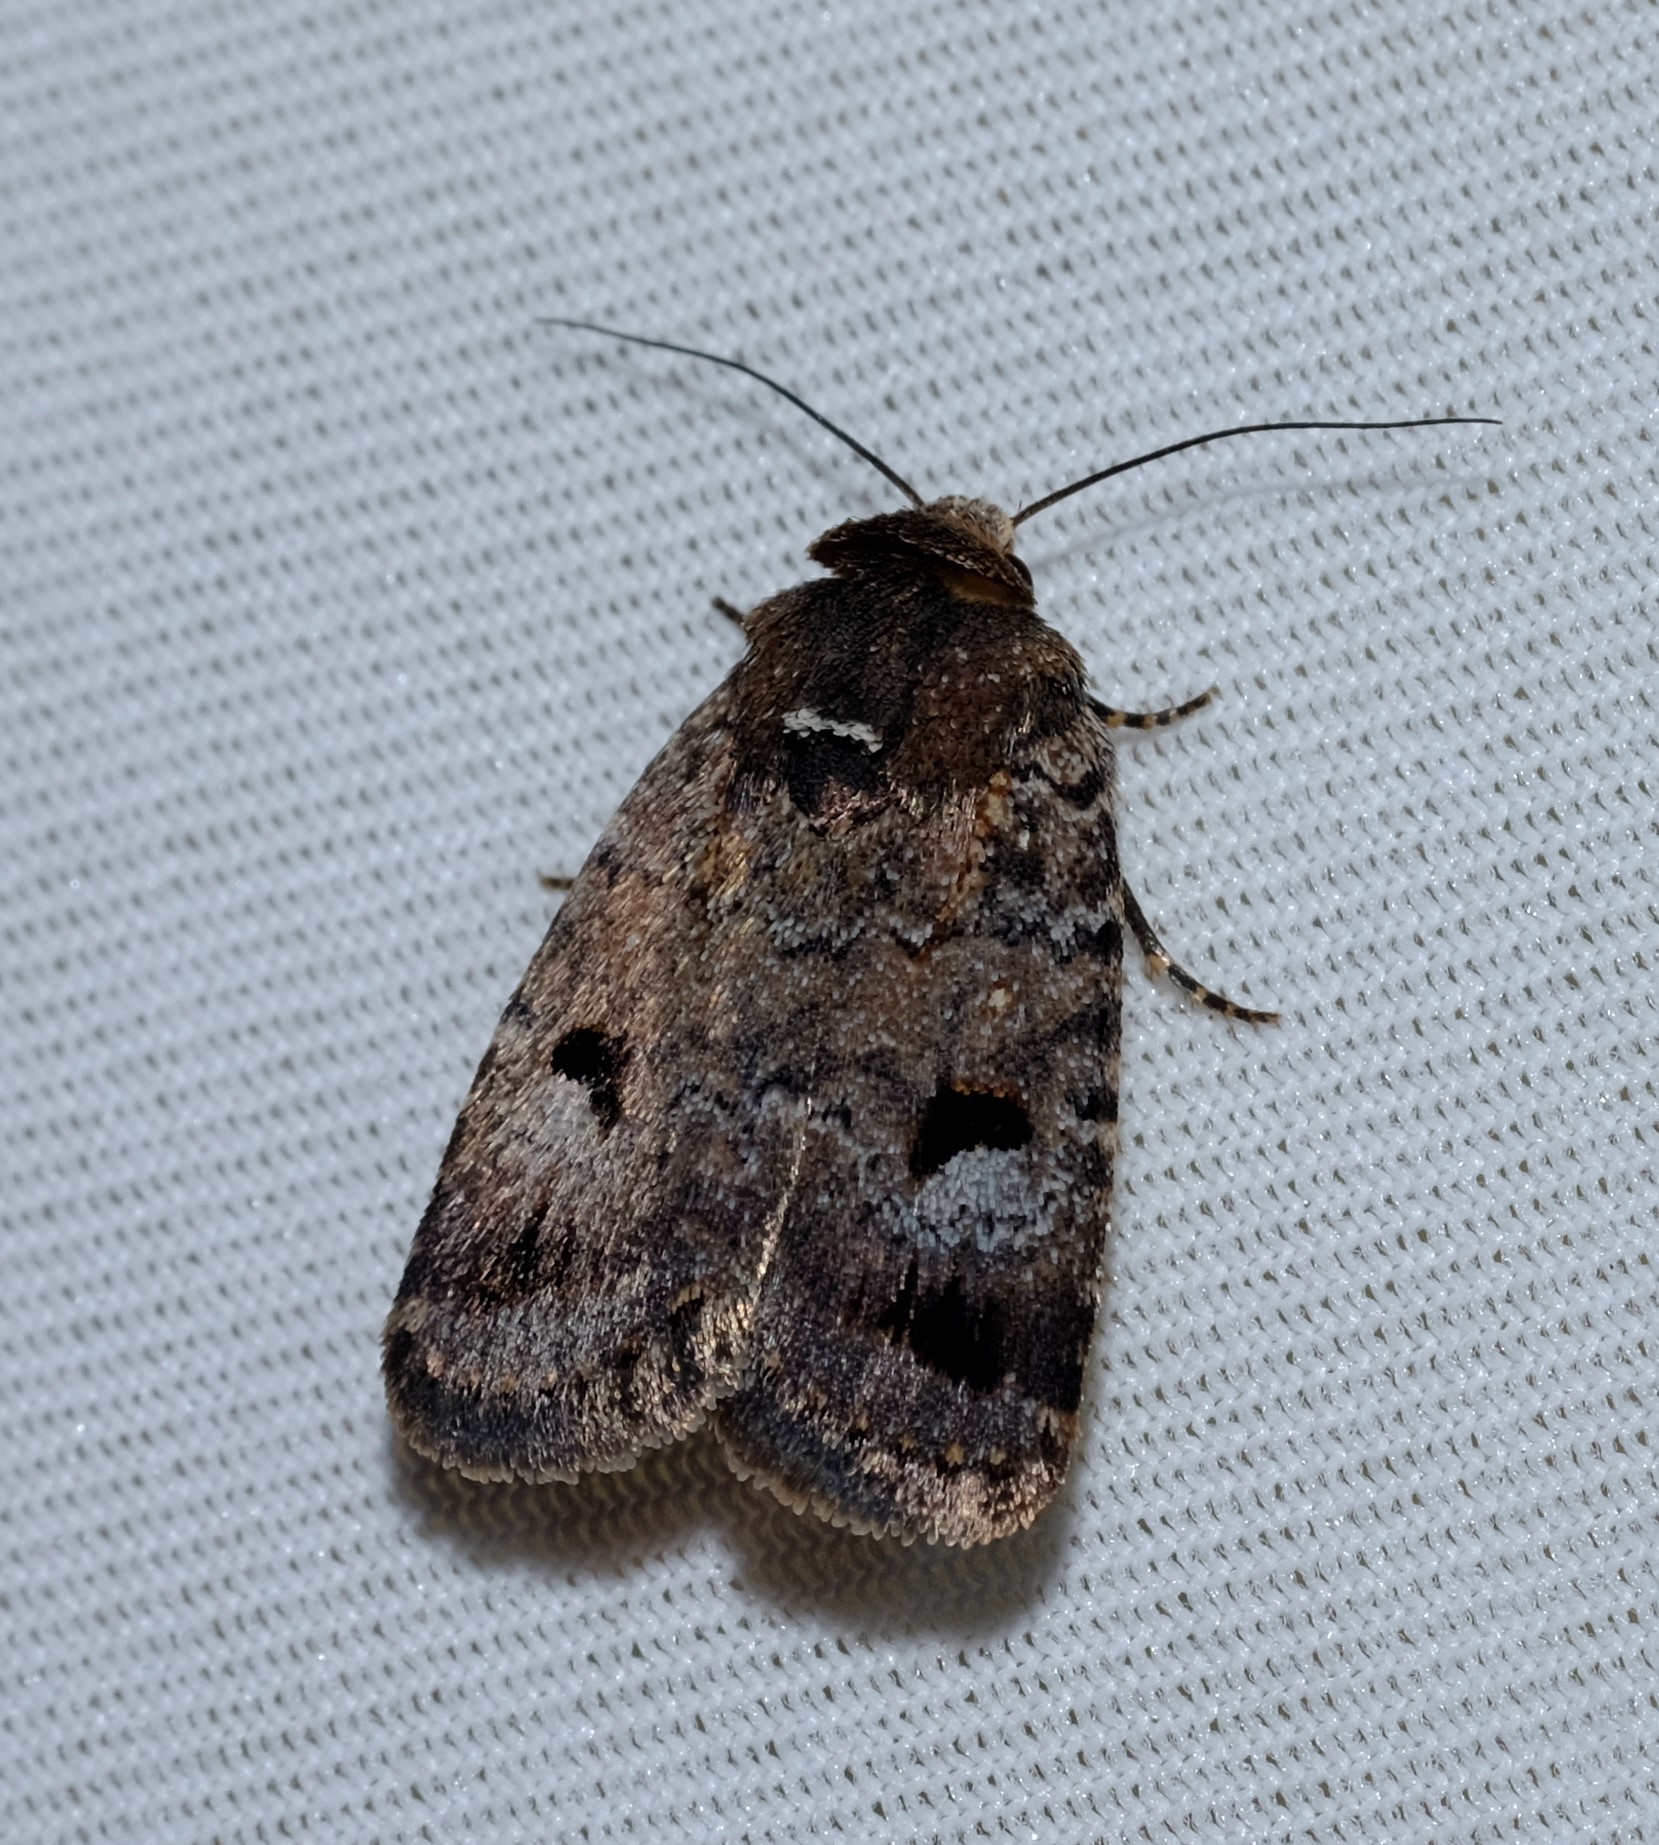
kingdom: Animalia
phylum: Arthropoda
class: Insecta
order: Lepidoptera
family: Noctuidae
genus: Thoracolopha
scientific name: Thoracolopha verecunda
